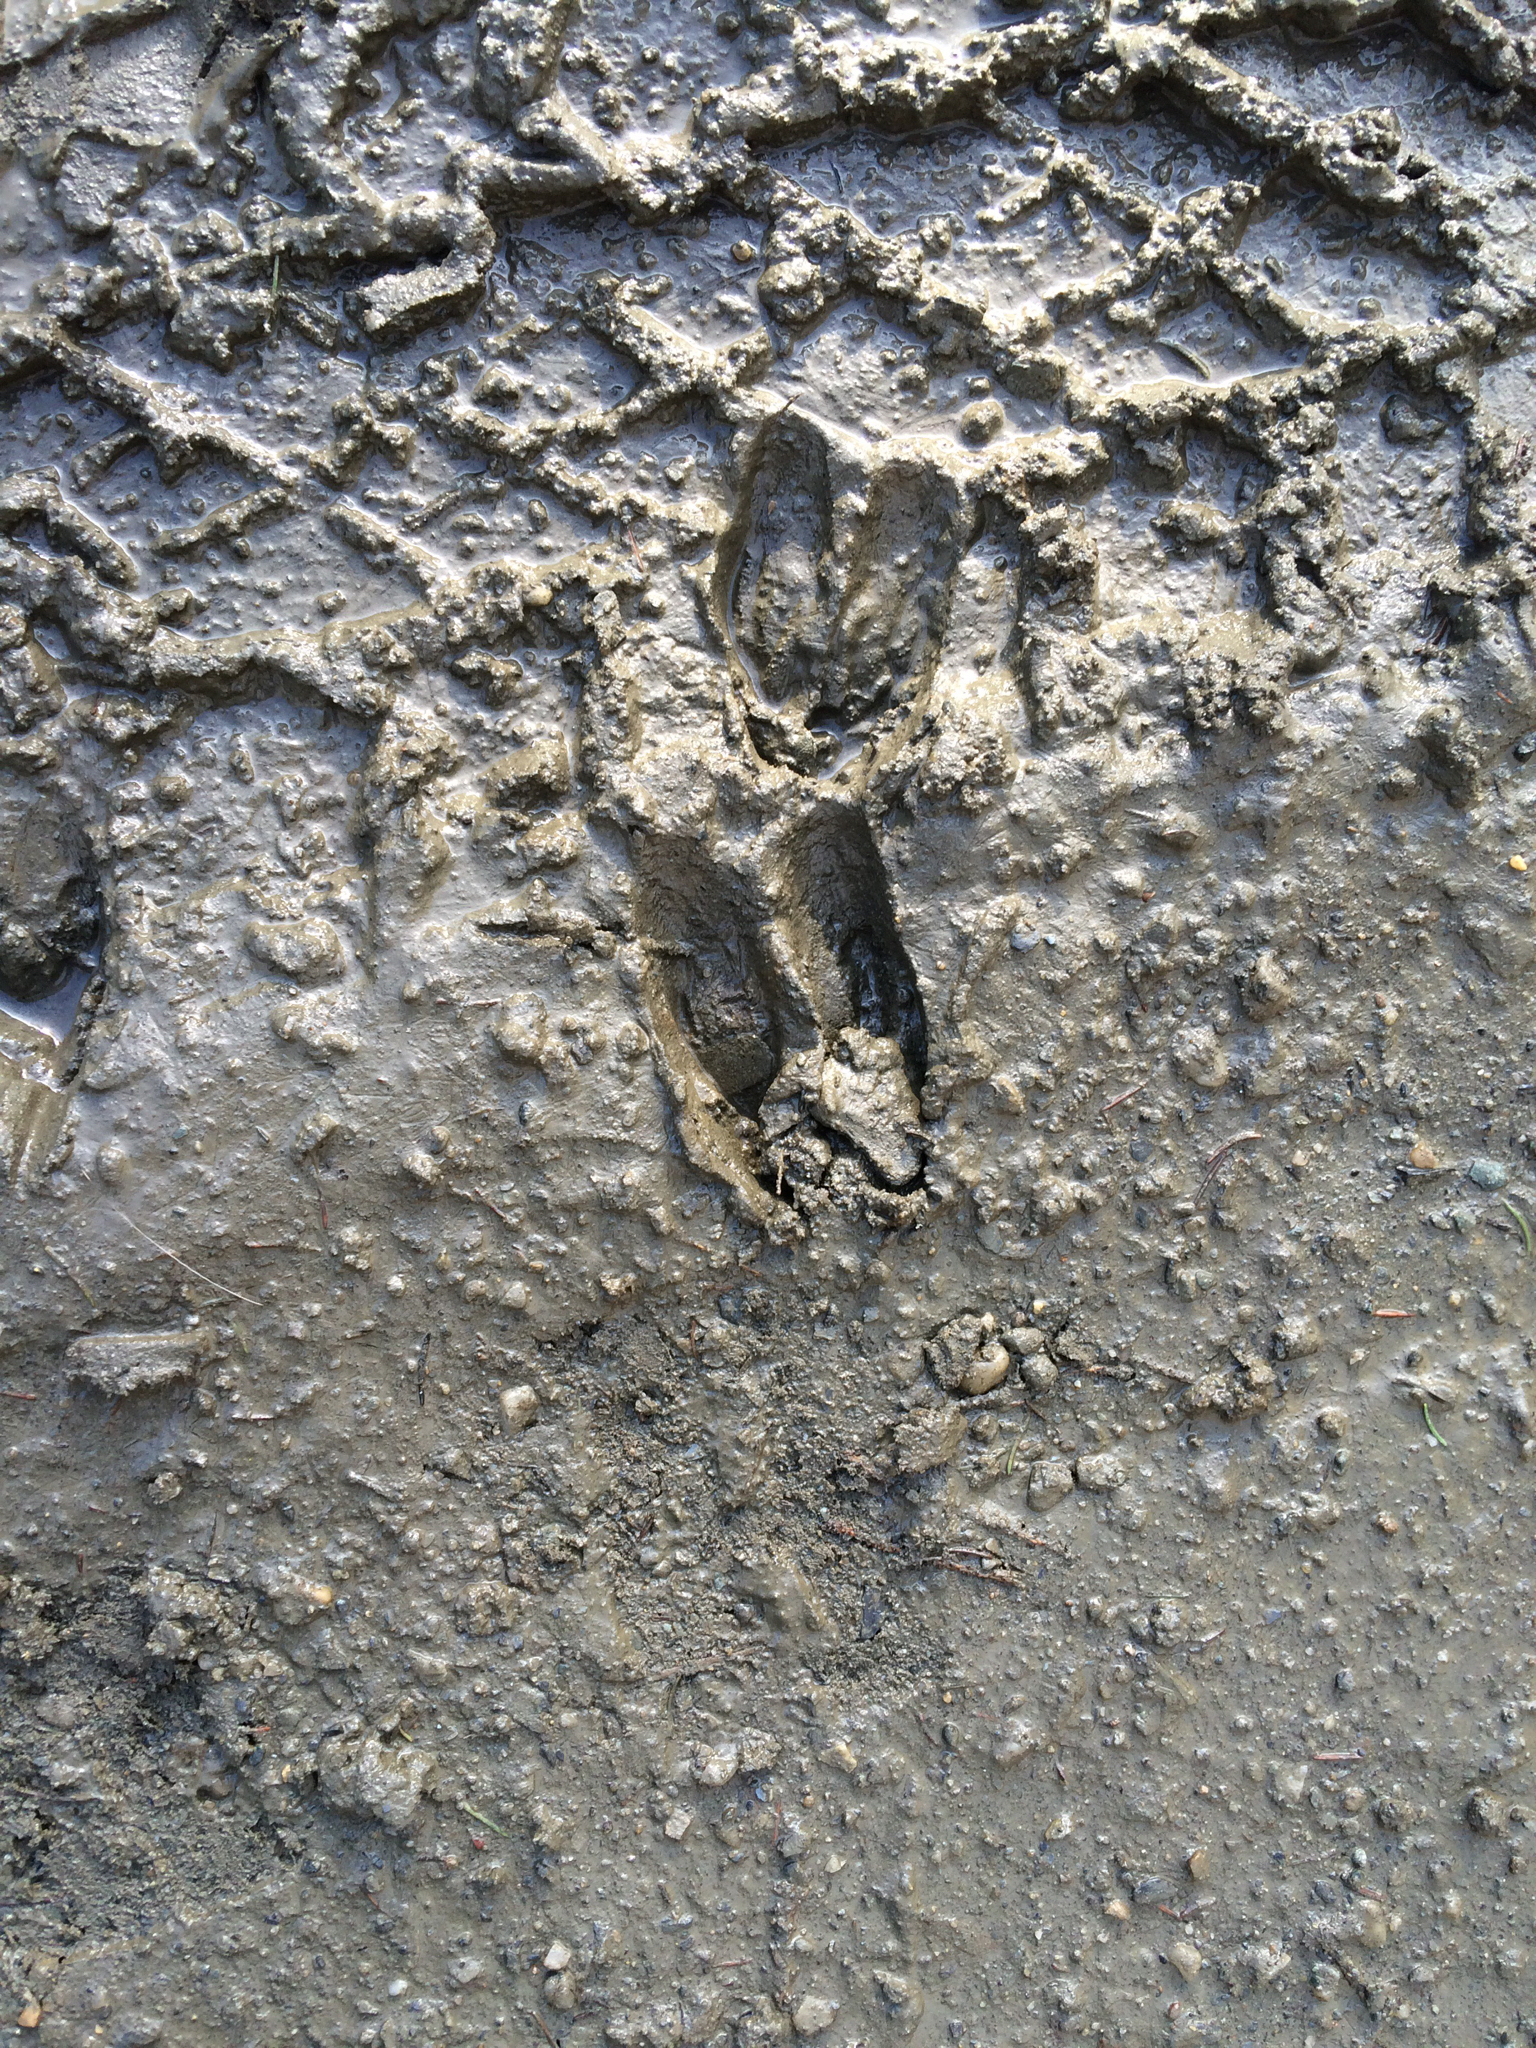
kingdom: Animalia
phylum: Chordata
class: Mammalia
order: Artiodactyla
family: Cervidae
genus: Odocoileus
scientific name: Odocoileus virginianus
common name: White-tailed deer
